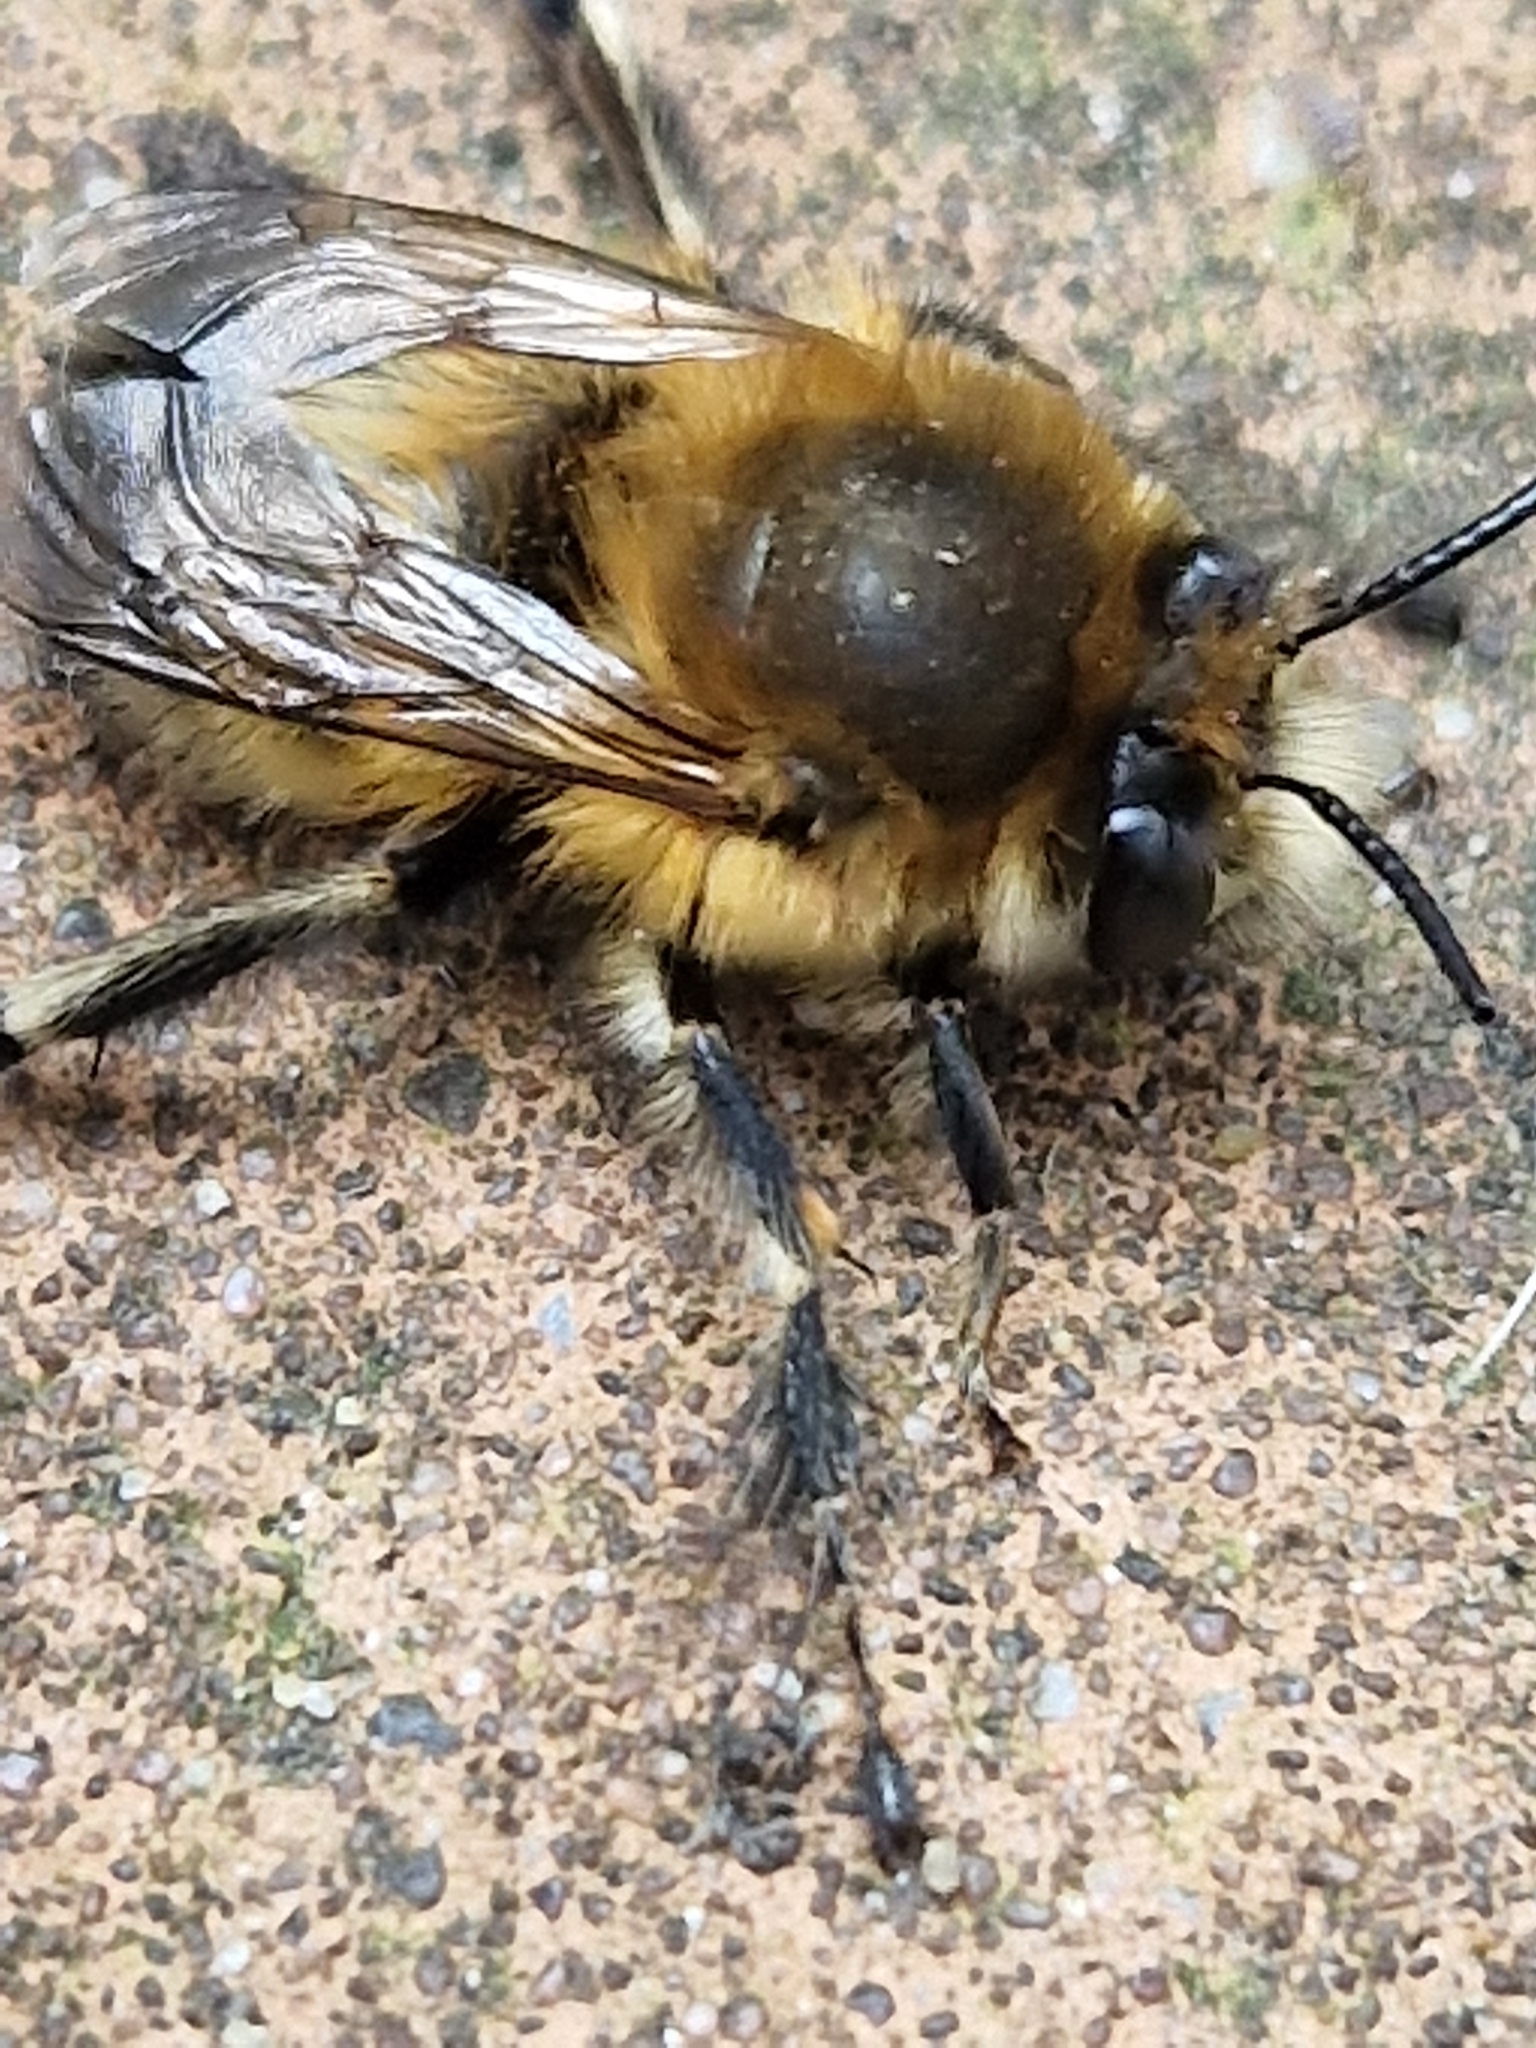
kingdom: Animalia
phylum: Arthropoda
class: Insecta
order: Hymenoptera
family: Apidae
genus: Anthophora
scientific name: Anthophora plumipes
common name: Hairy-footed flower bee
